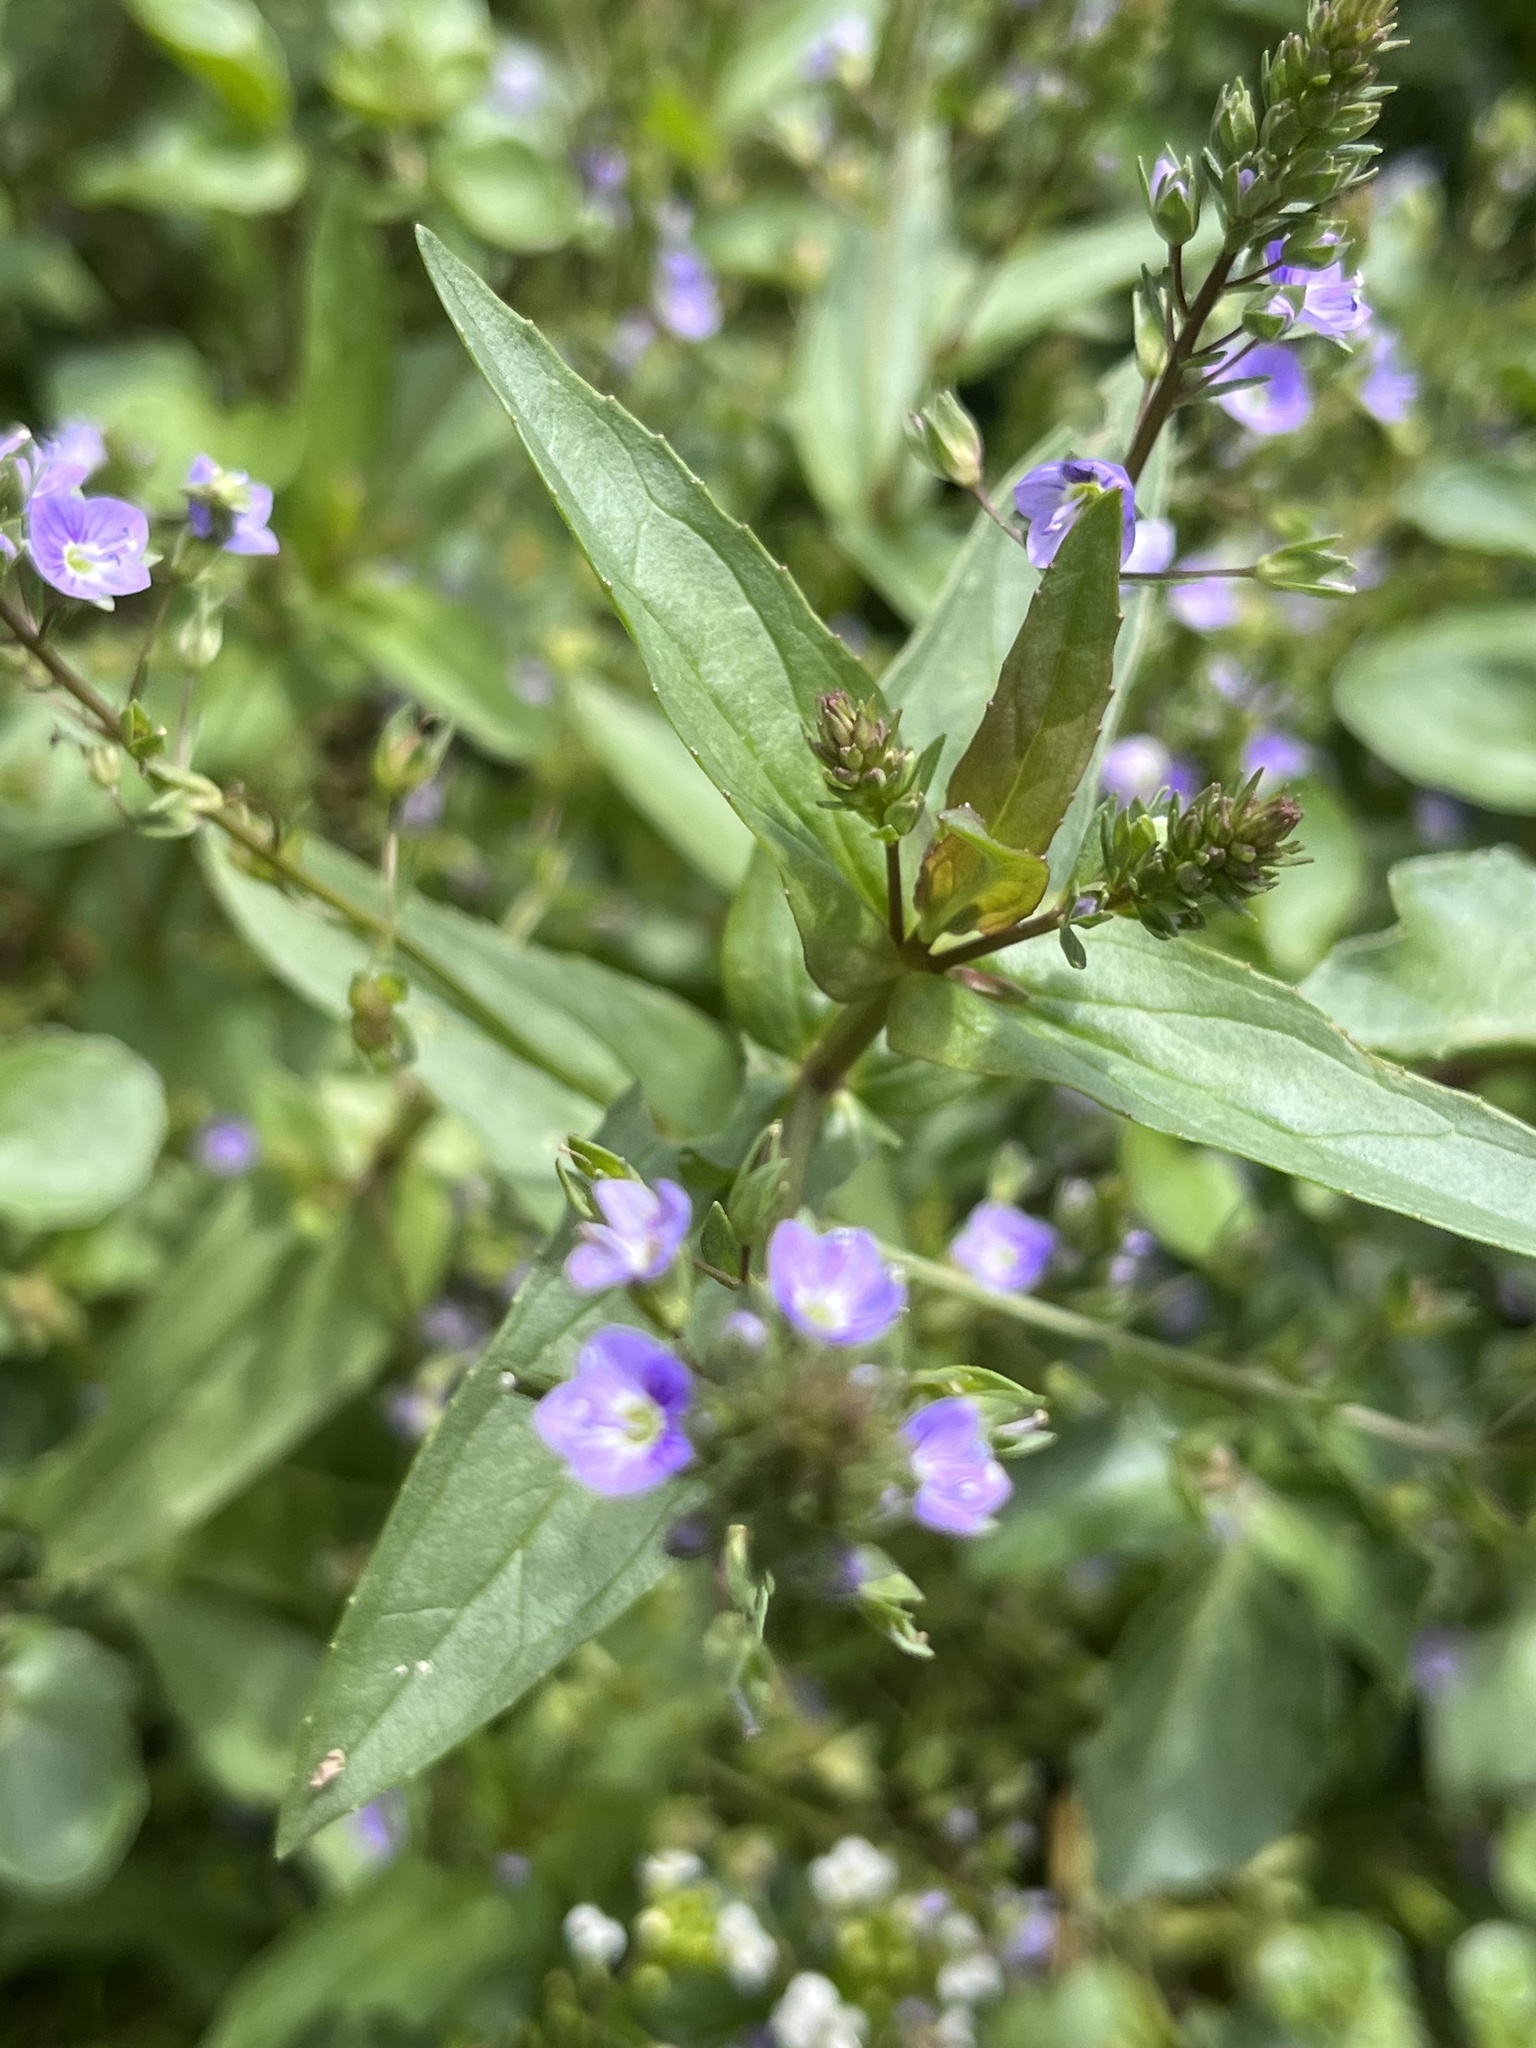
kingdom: Plantae
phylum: Tracheophyta
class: Magnoliopsida
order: Lamiales
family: Plantaginaceae
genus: Veronica
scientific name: Veronica anagallis-aquatica
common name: Water speedwell
